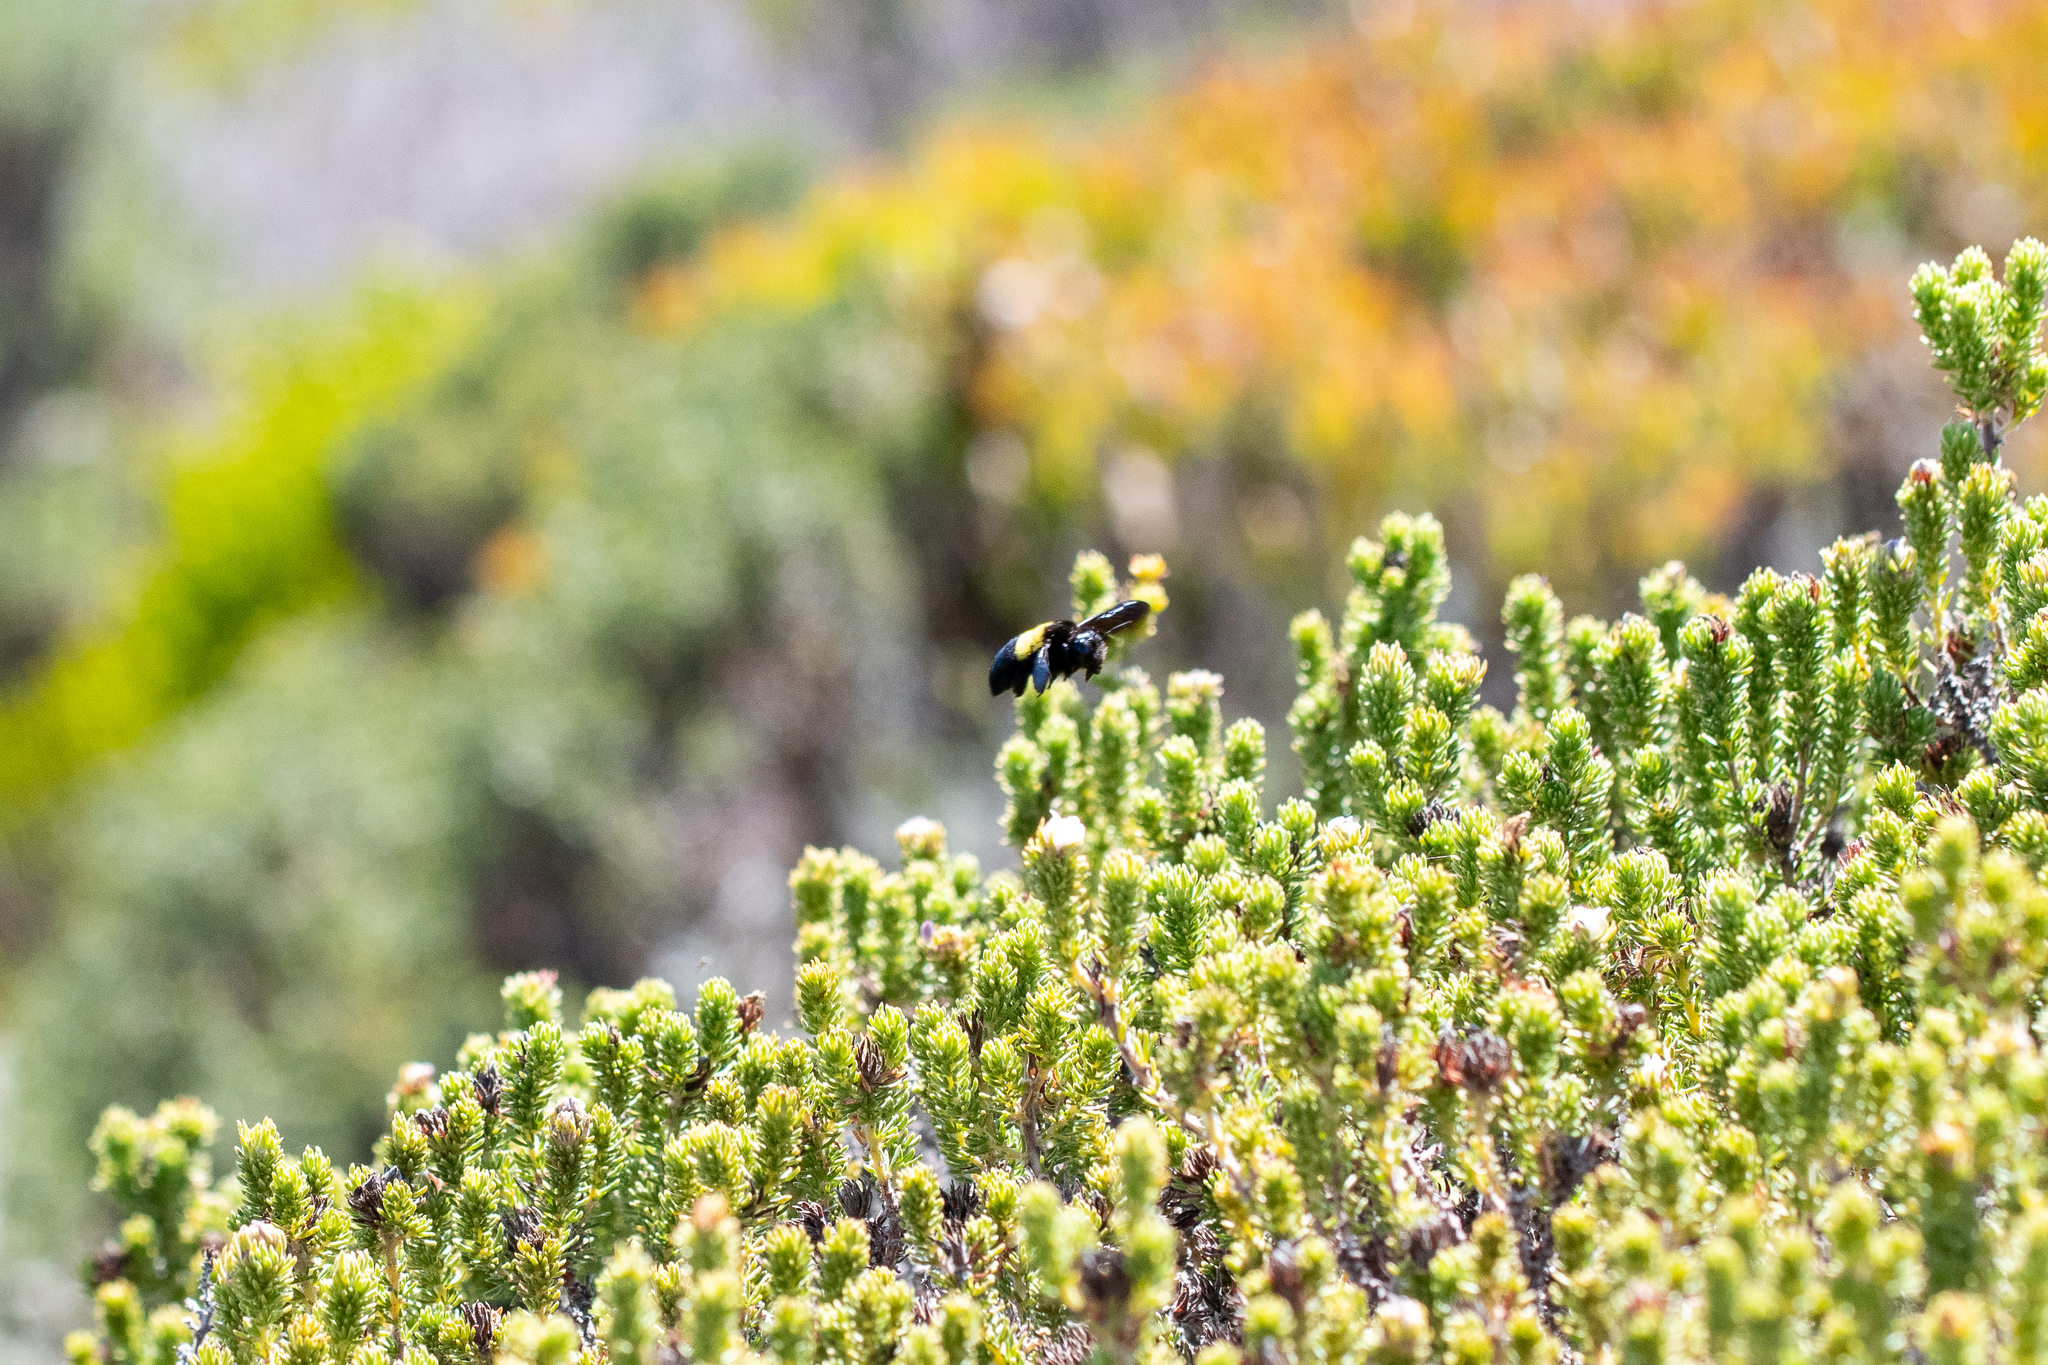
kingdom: Animalia
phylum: Arthropoda
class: Insecta
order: Hymenoptera
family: Apidae
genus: Xylocopa
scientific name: Xylocopa caffra
